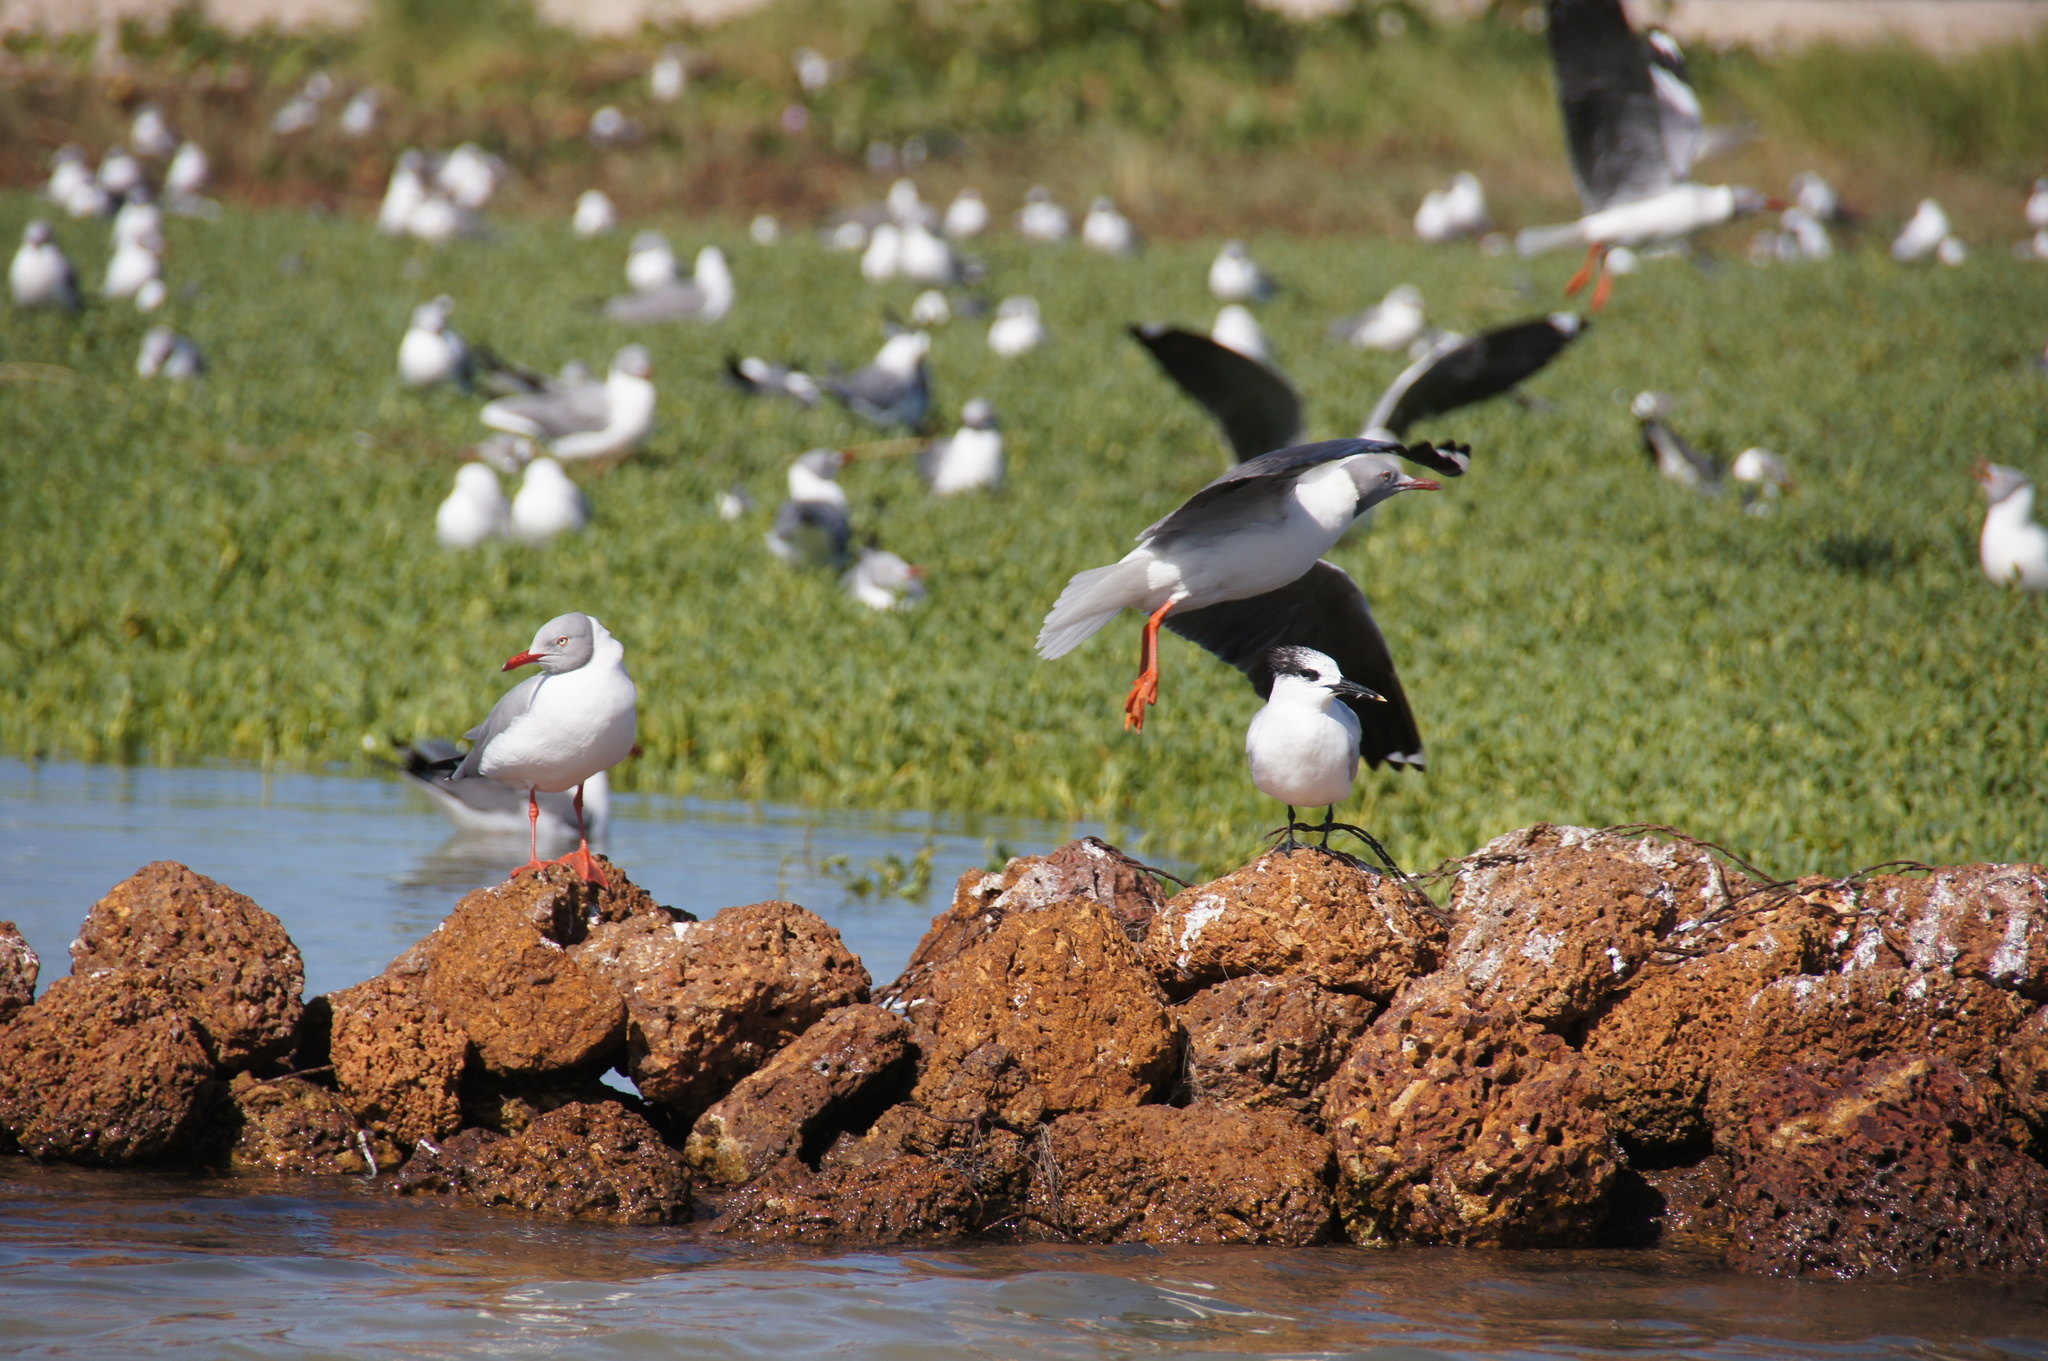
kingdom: Animalia
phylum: Chordata
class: Aves
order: Charadriiformes
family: Laridae
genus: Chroicocephalus
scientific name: Chroicocephalus cirrocephalus
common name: Grey-headed gull
